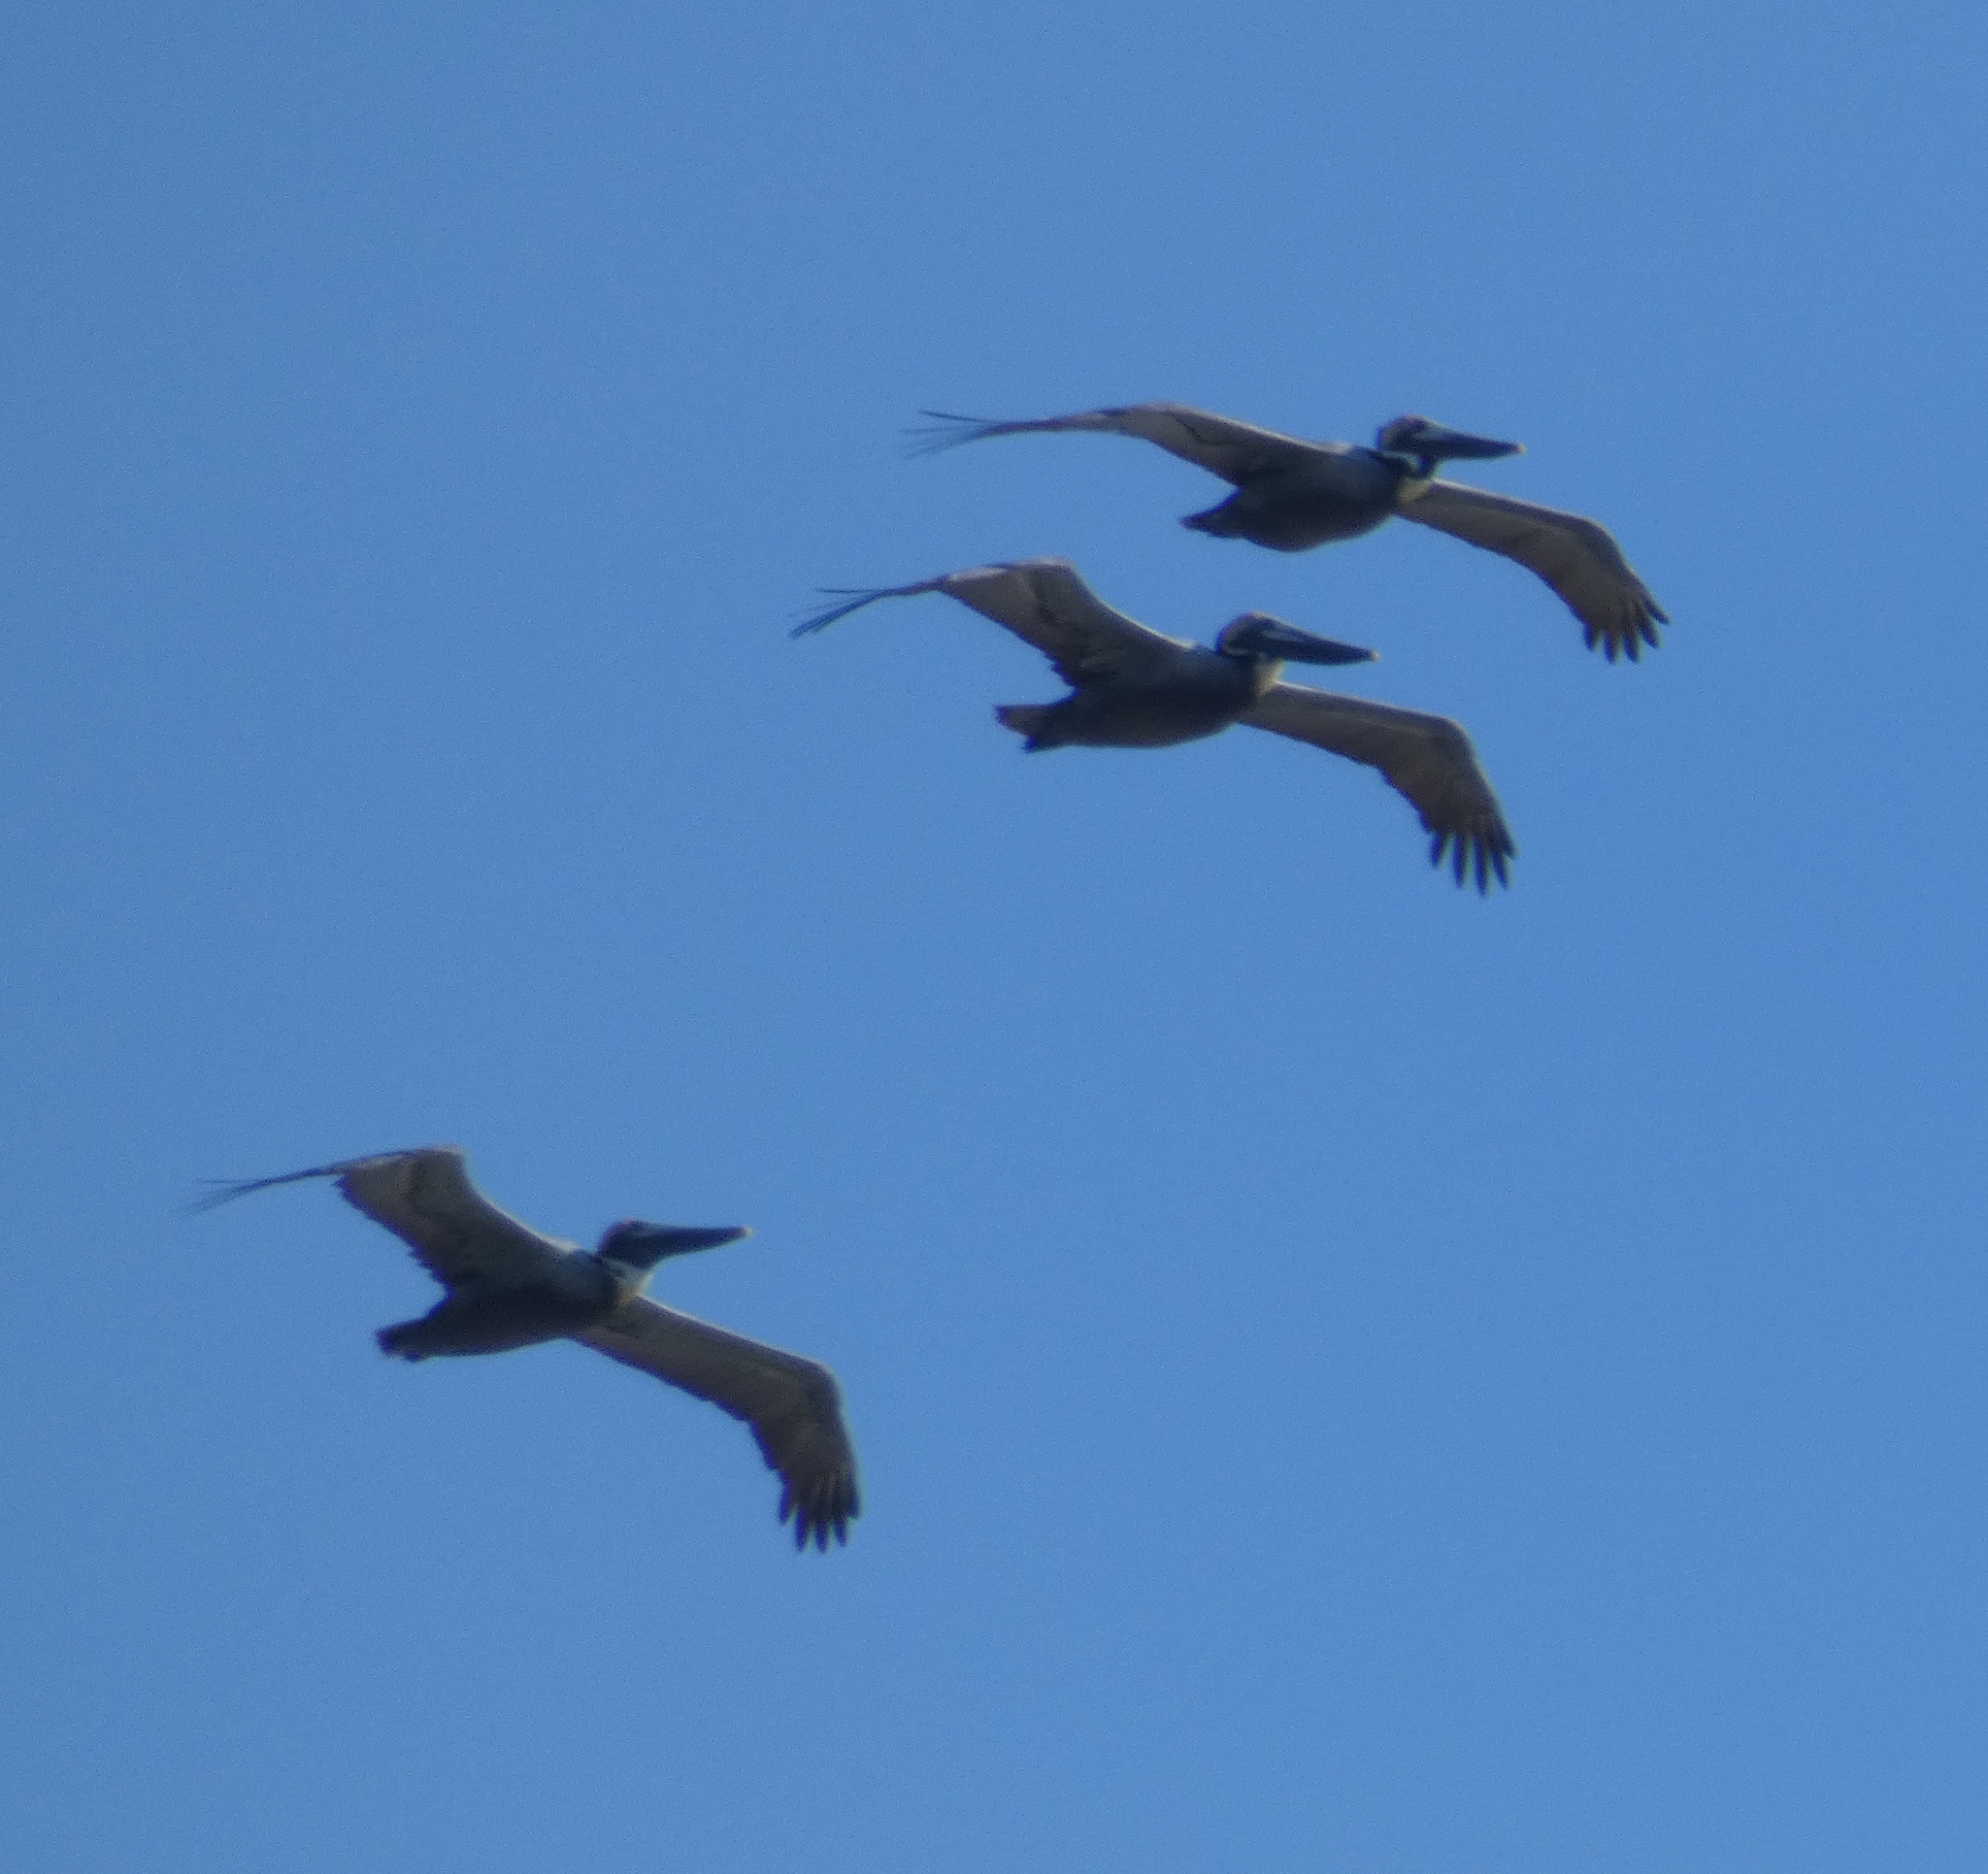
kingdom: Animalia
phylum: Chordata
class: Aves
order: Pelecaniformes
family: Pelecanidae
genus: Pelecanus
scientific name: Pelecanus occidentalis
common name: Brown pelican
